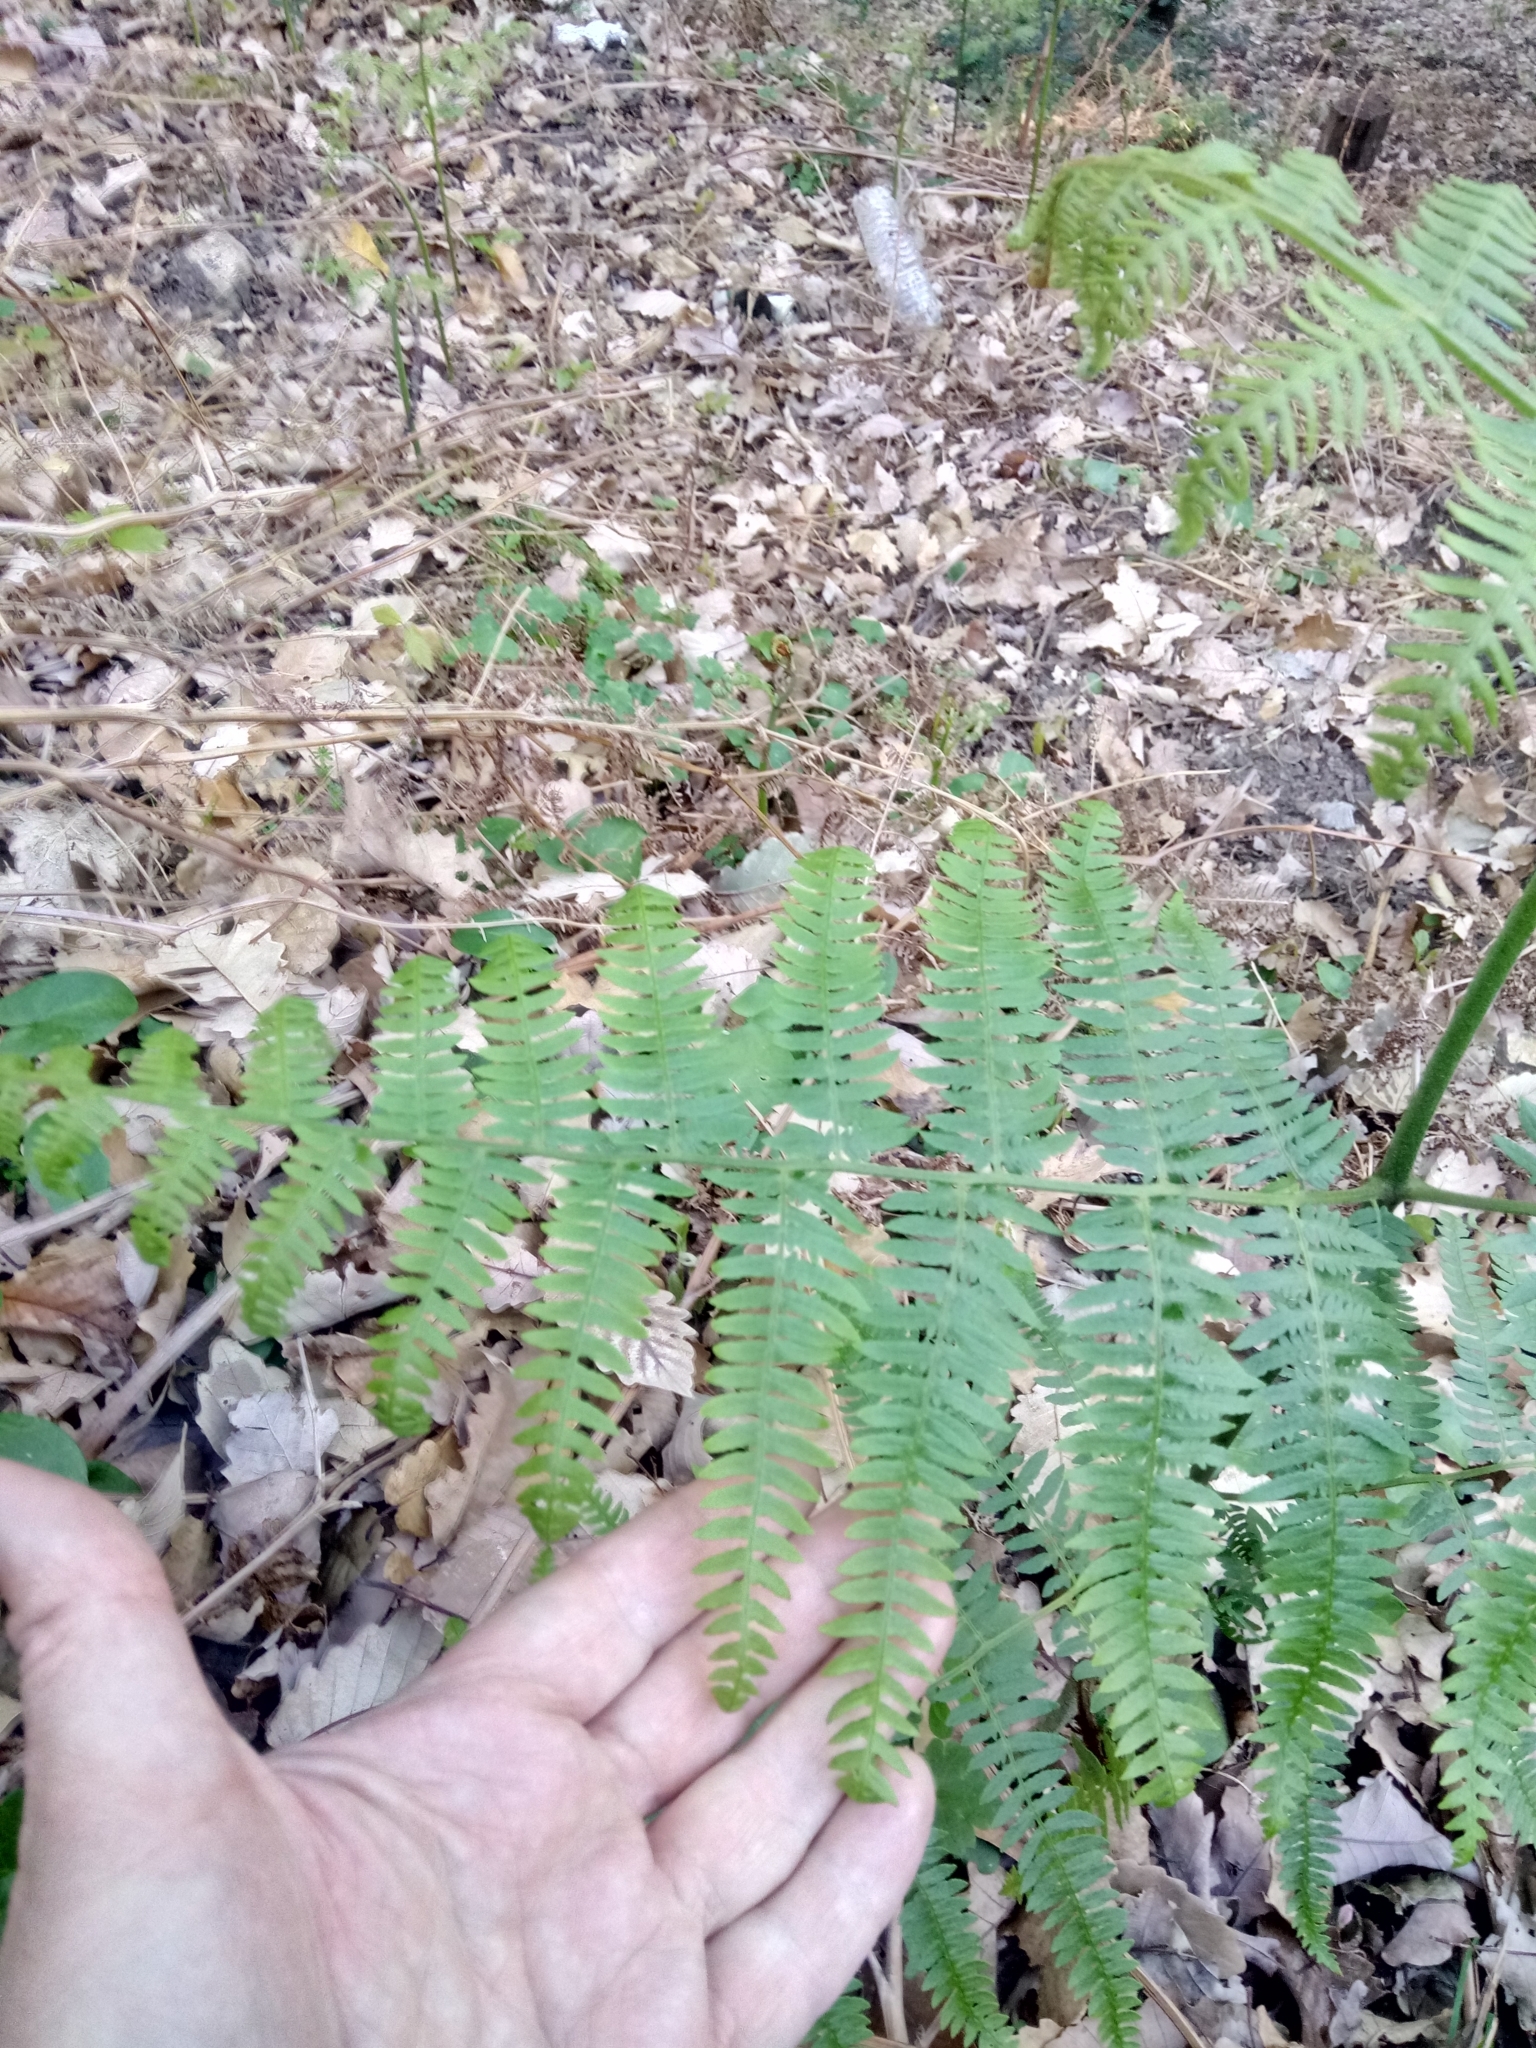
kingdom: Plantae
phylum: Tracheophyta
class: Polypodiopsida
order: Polypodiales
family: Dennstaedtiaceae
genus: Pteridium
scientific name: Pteridium aquilinum
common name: Bracken
